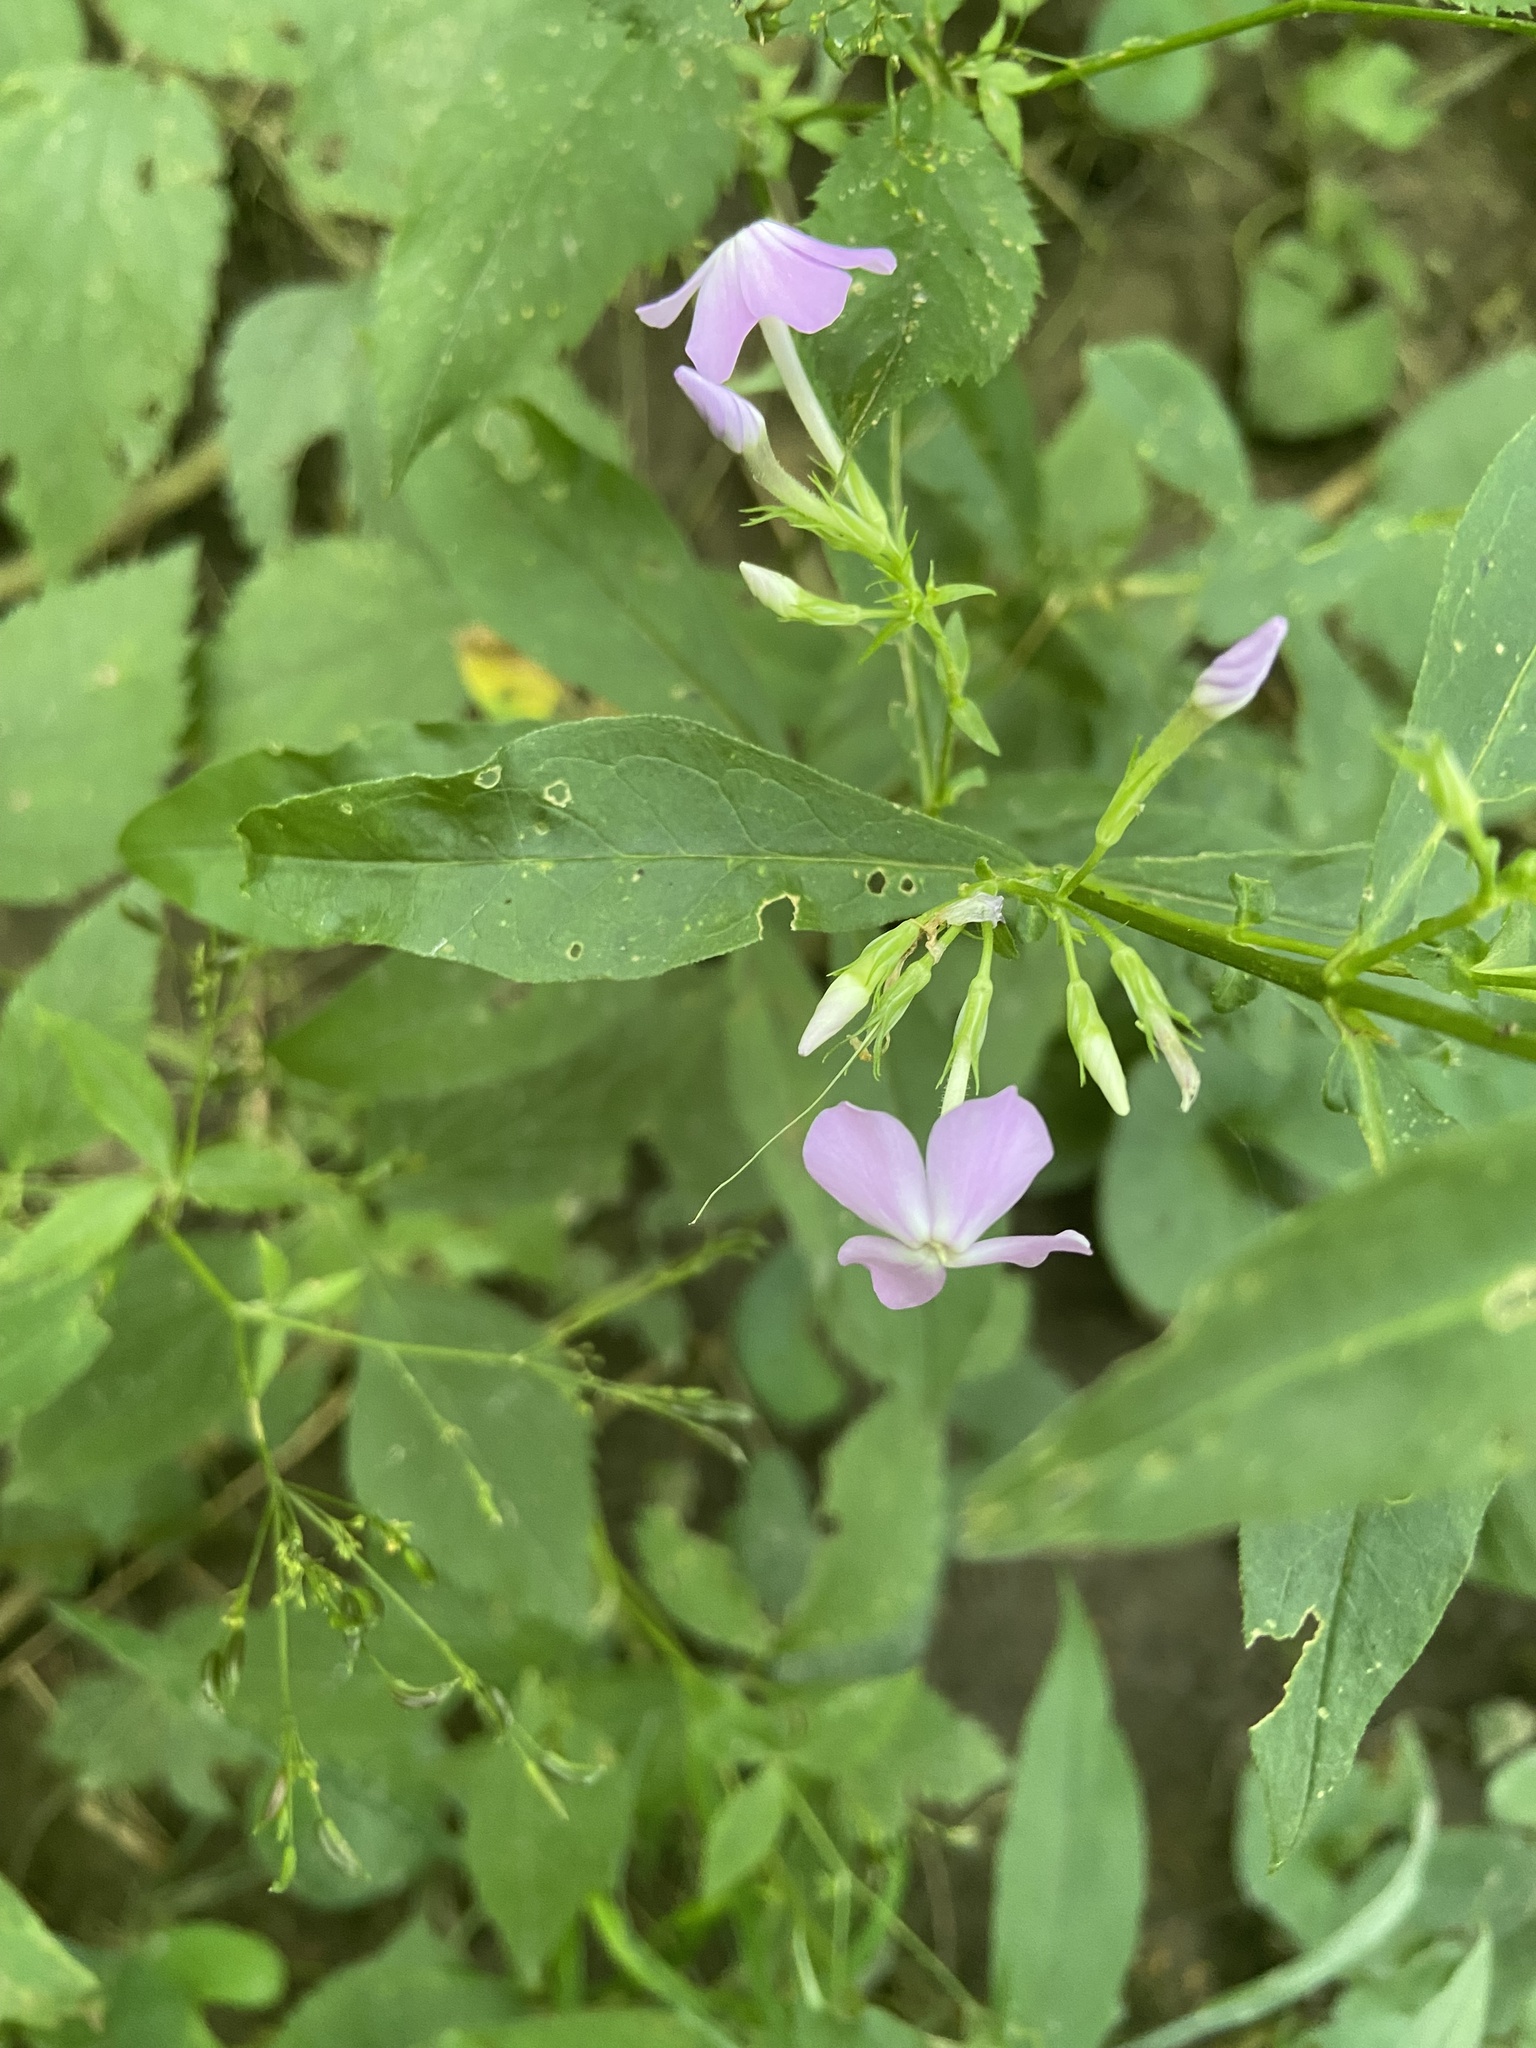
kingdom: Plantae
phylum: Tracheophyta
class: Magnoliopsida
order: Ericales
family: Polemoniaceae
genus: Phlox
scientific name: Phlox paniculata
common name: Fall phlox
